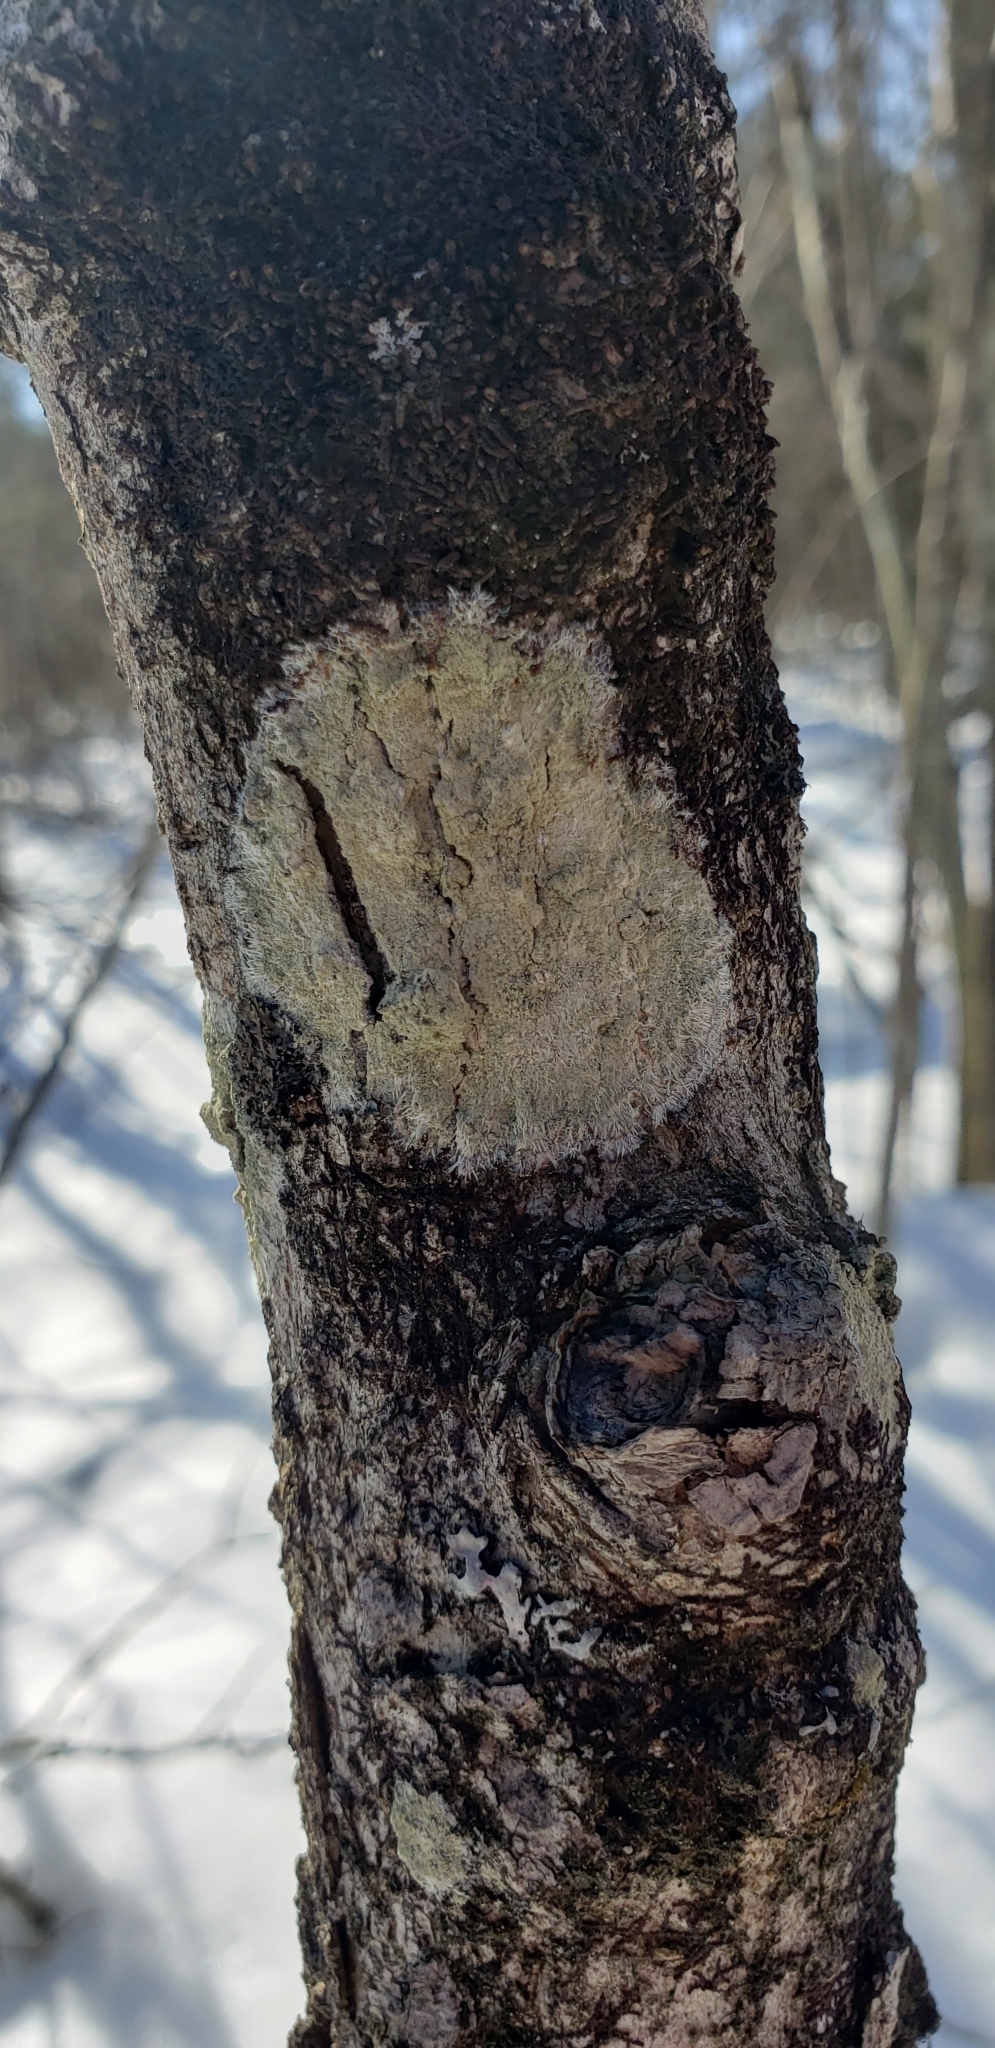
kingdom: Fungi
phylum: Ascomycota
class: Lecanoromycetes
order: Pertusariales
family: Pertusariaceae
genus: Verseghya
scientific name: Verseghya thysanophora
